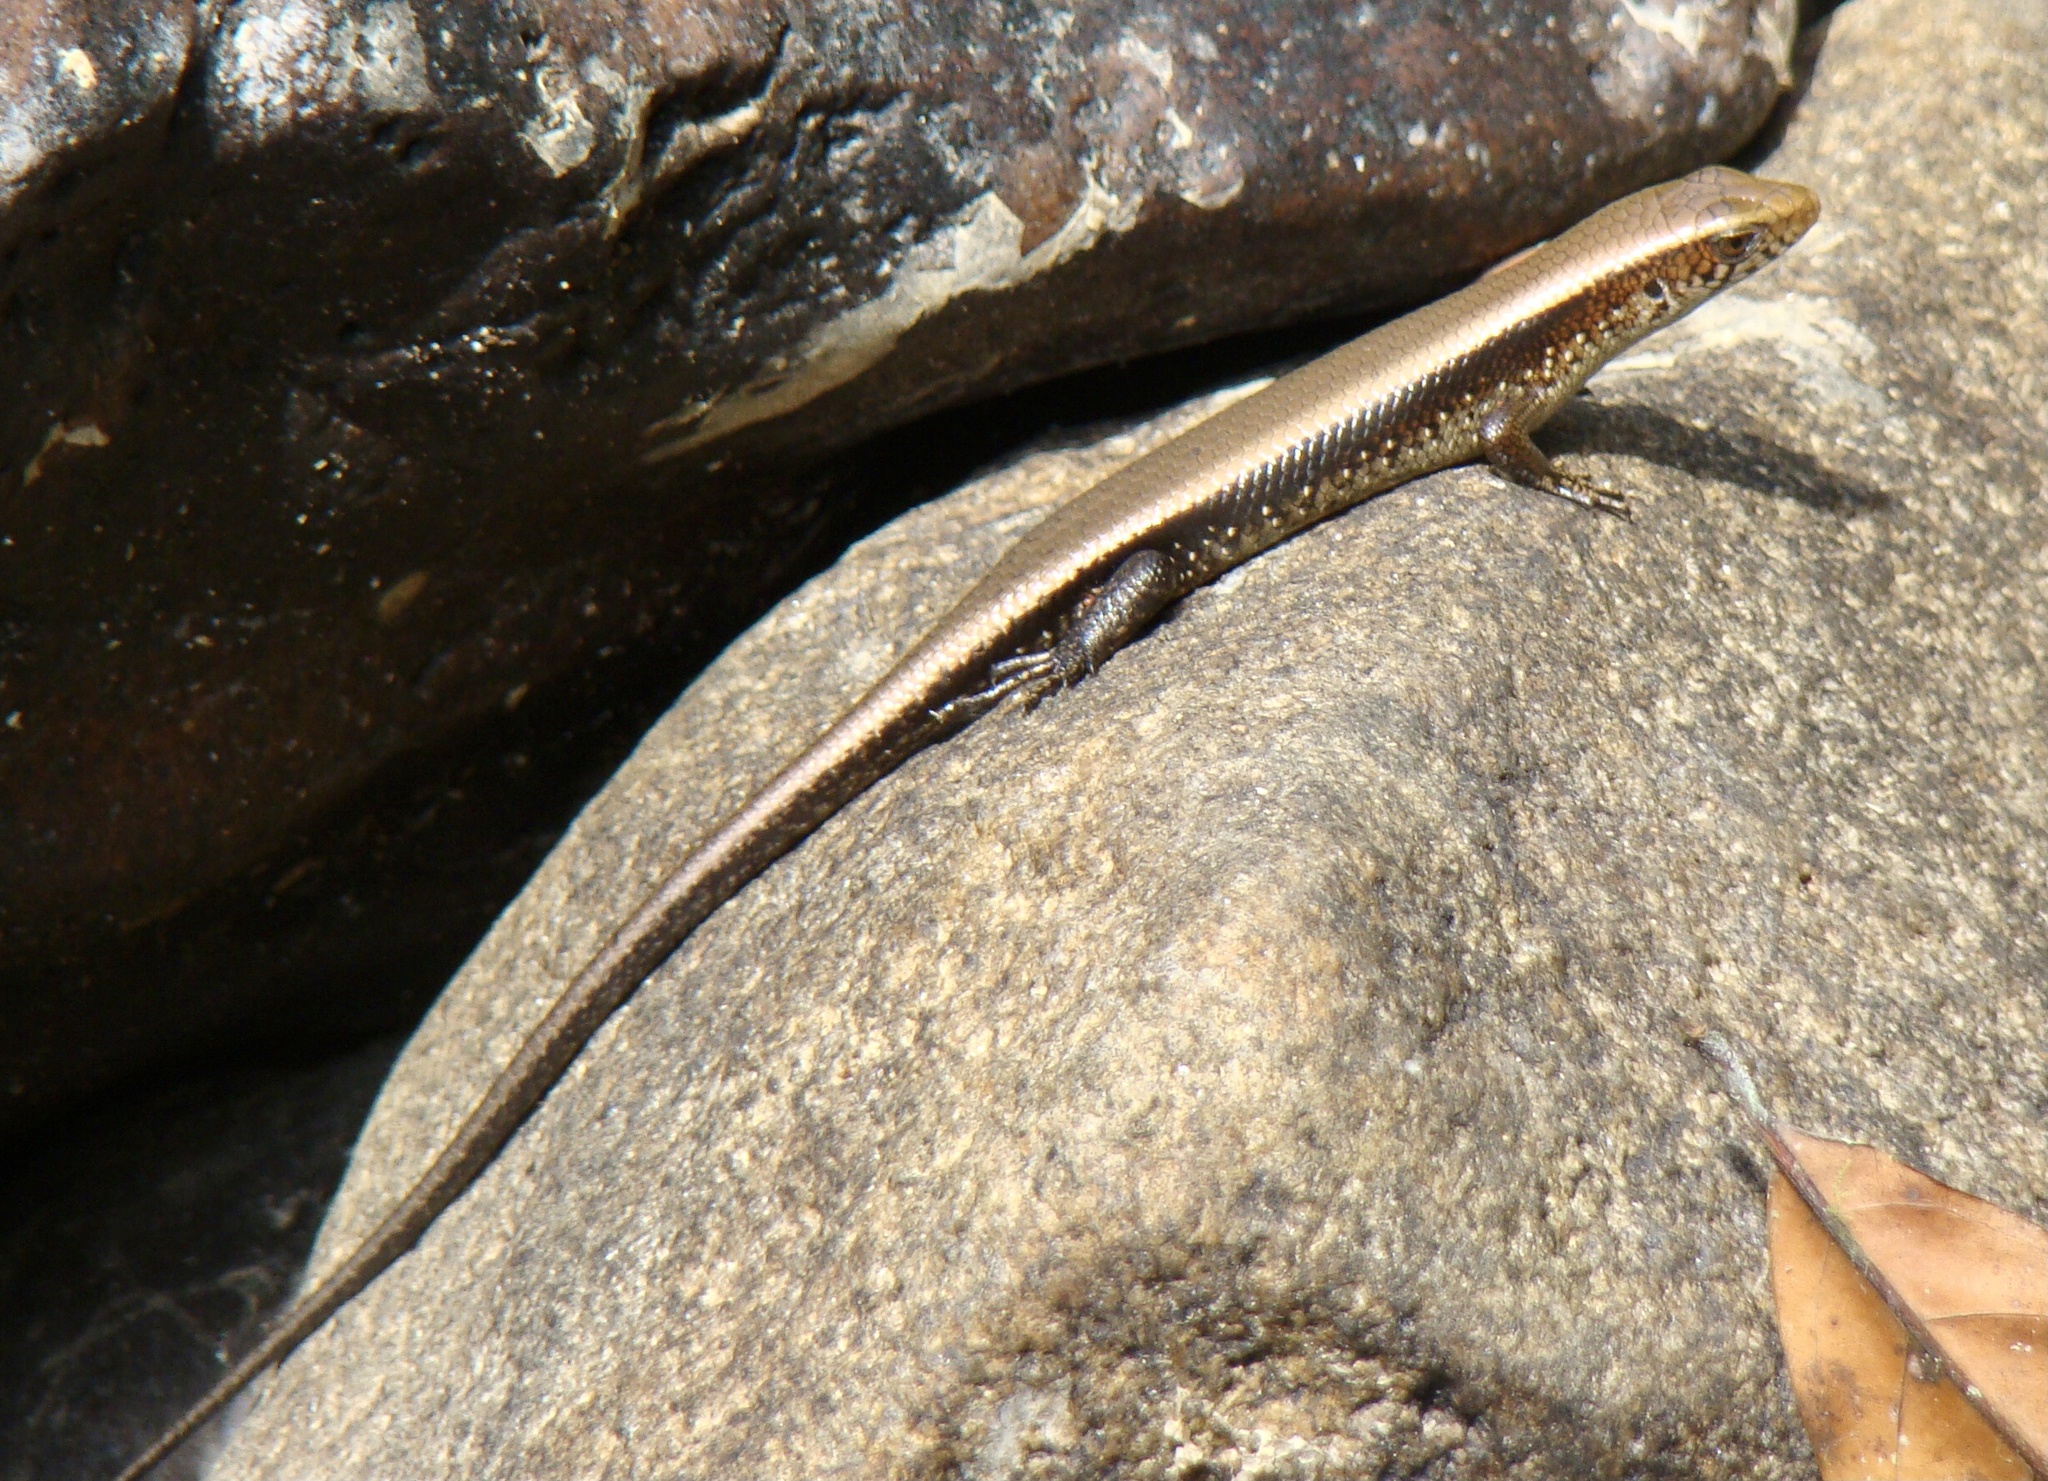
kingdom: Animalia
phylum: Chordata
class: Squamata
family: Scincidae
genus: Eutropis
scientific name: Eutropis multifasciata
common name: Common mabuya
